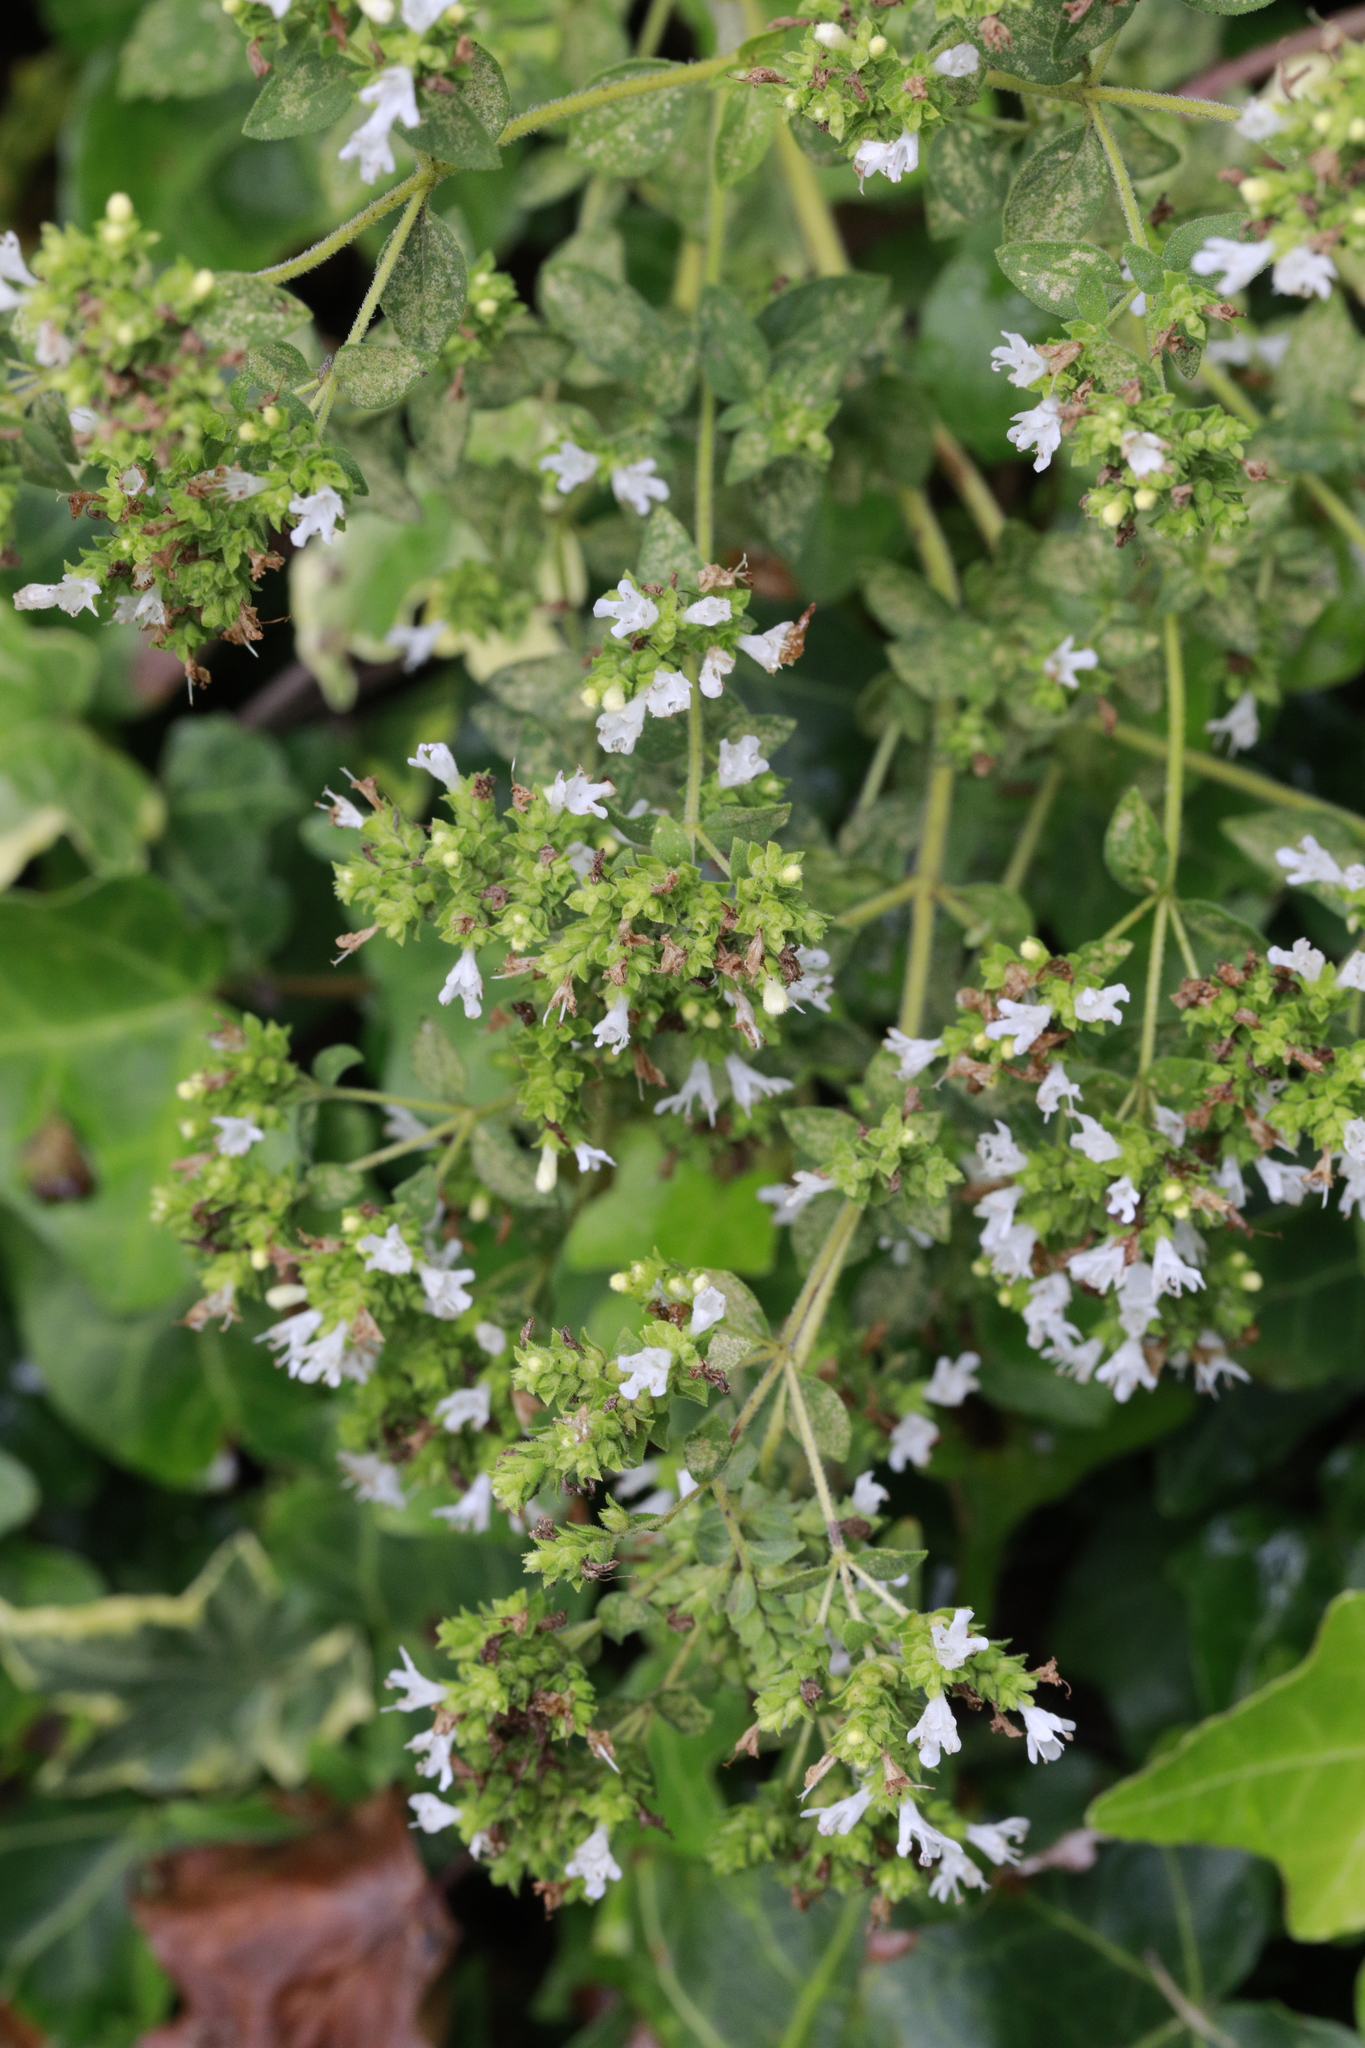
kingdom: Plantae
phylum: Tracheophyta
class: Magnoliopsida
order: Lamiales
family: Lamiaceae
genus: Origanum
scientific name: Origanum vulgare
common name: Wild marjoram
